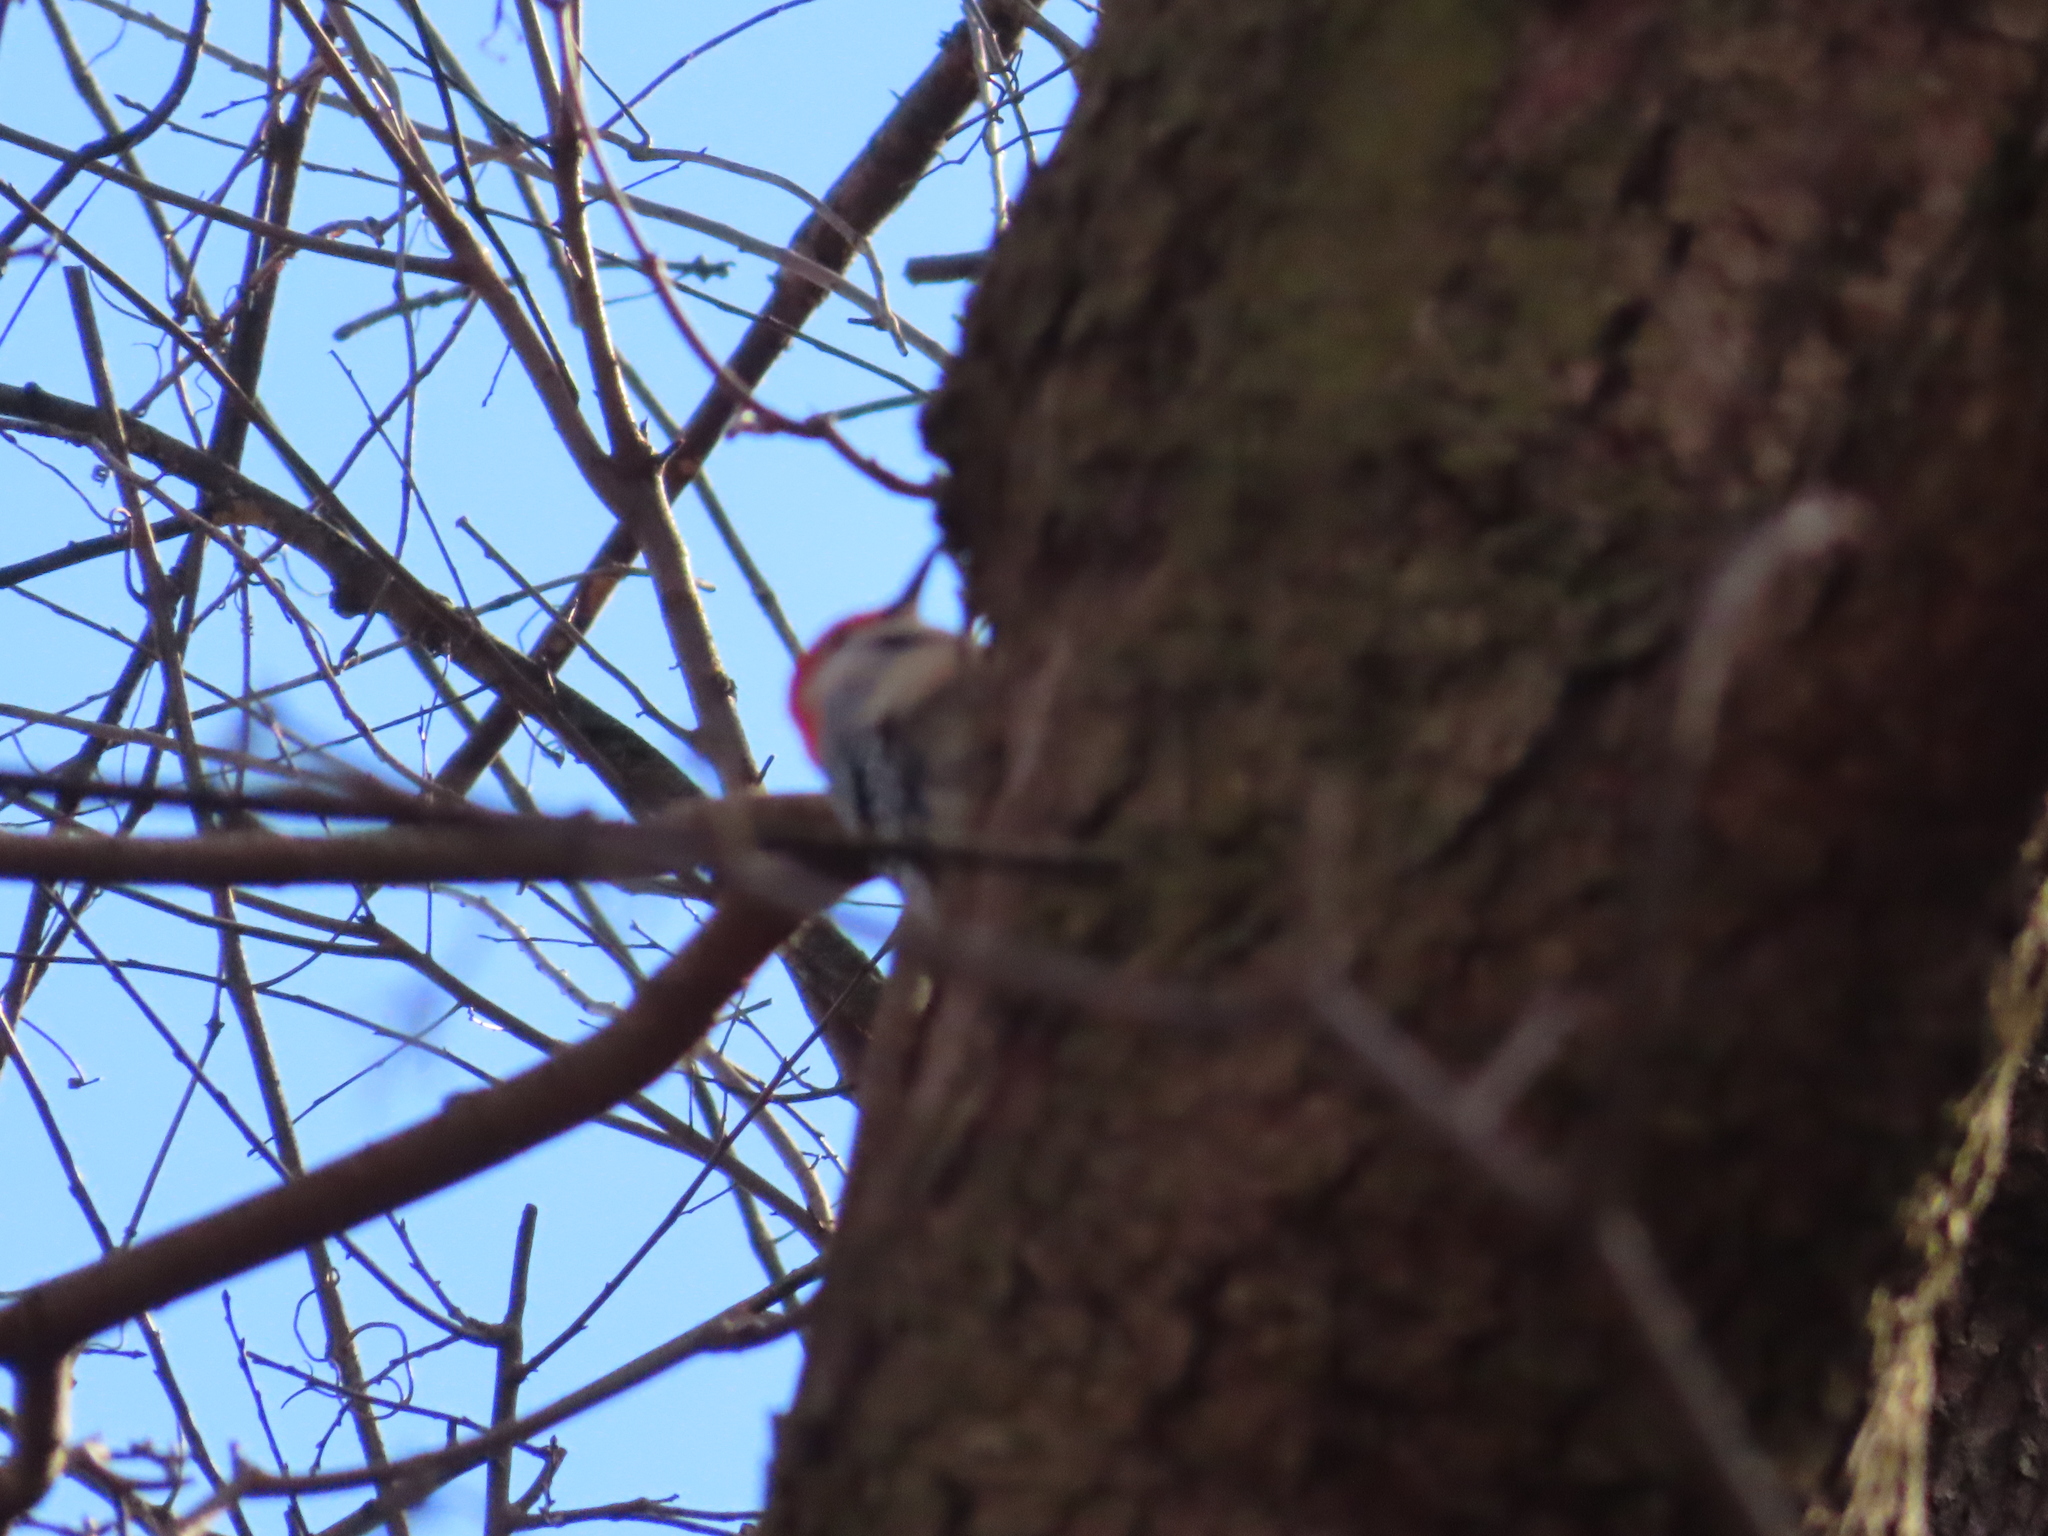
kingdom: Animalia
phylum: Chordata
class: Aves
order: Piciformes
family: Picidae
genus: Melanerpes
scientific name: Melanerpes carolinus
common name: Red-bellied woodpecker
